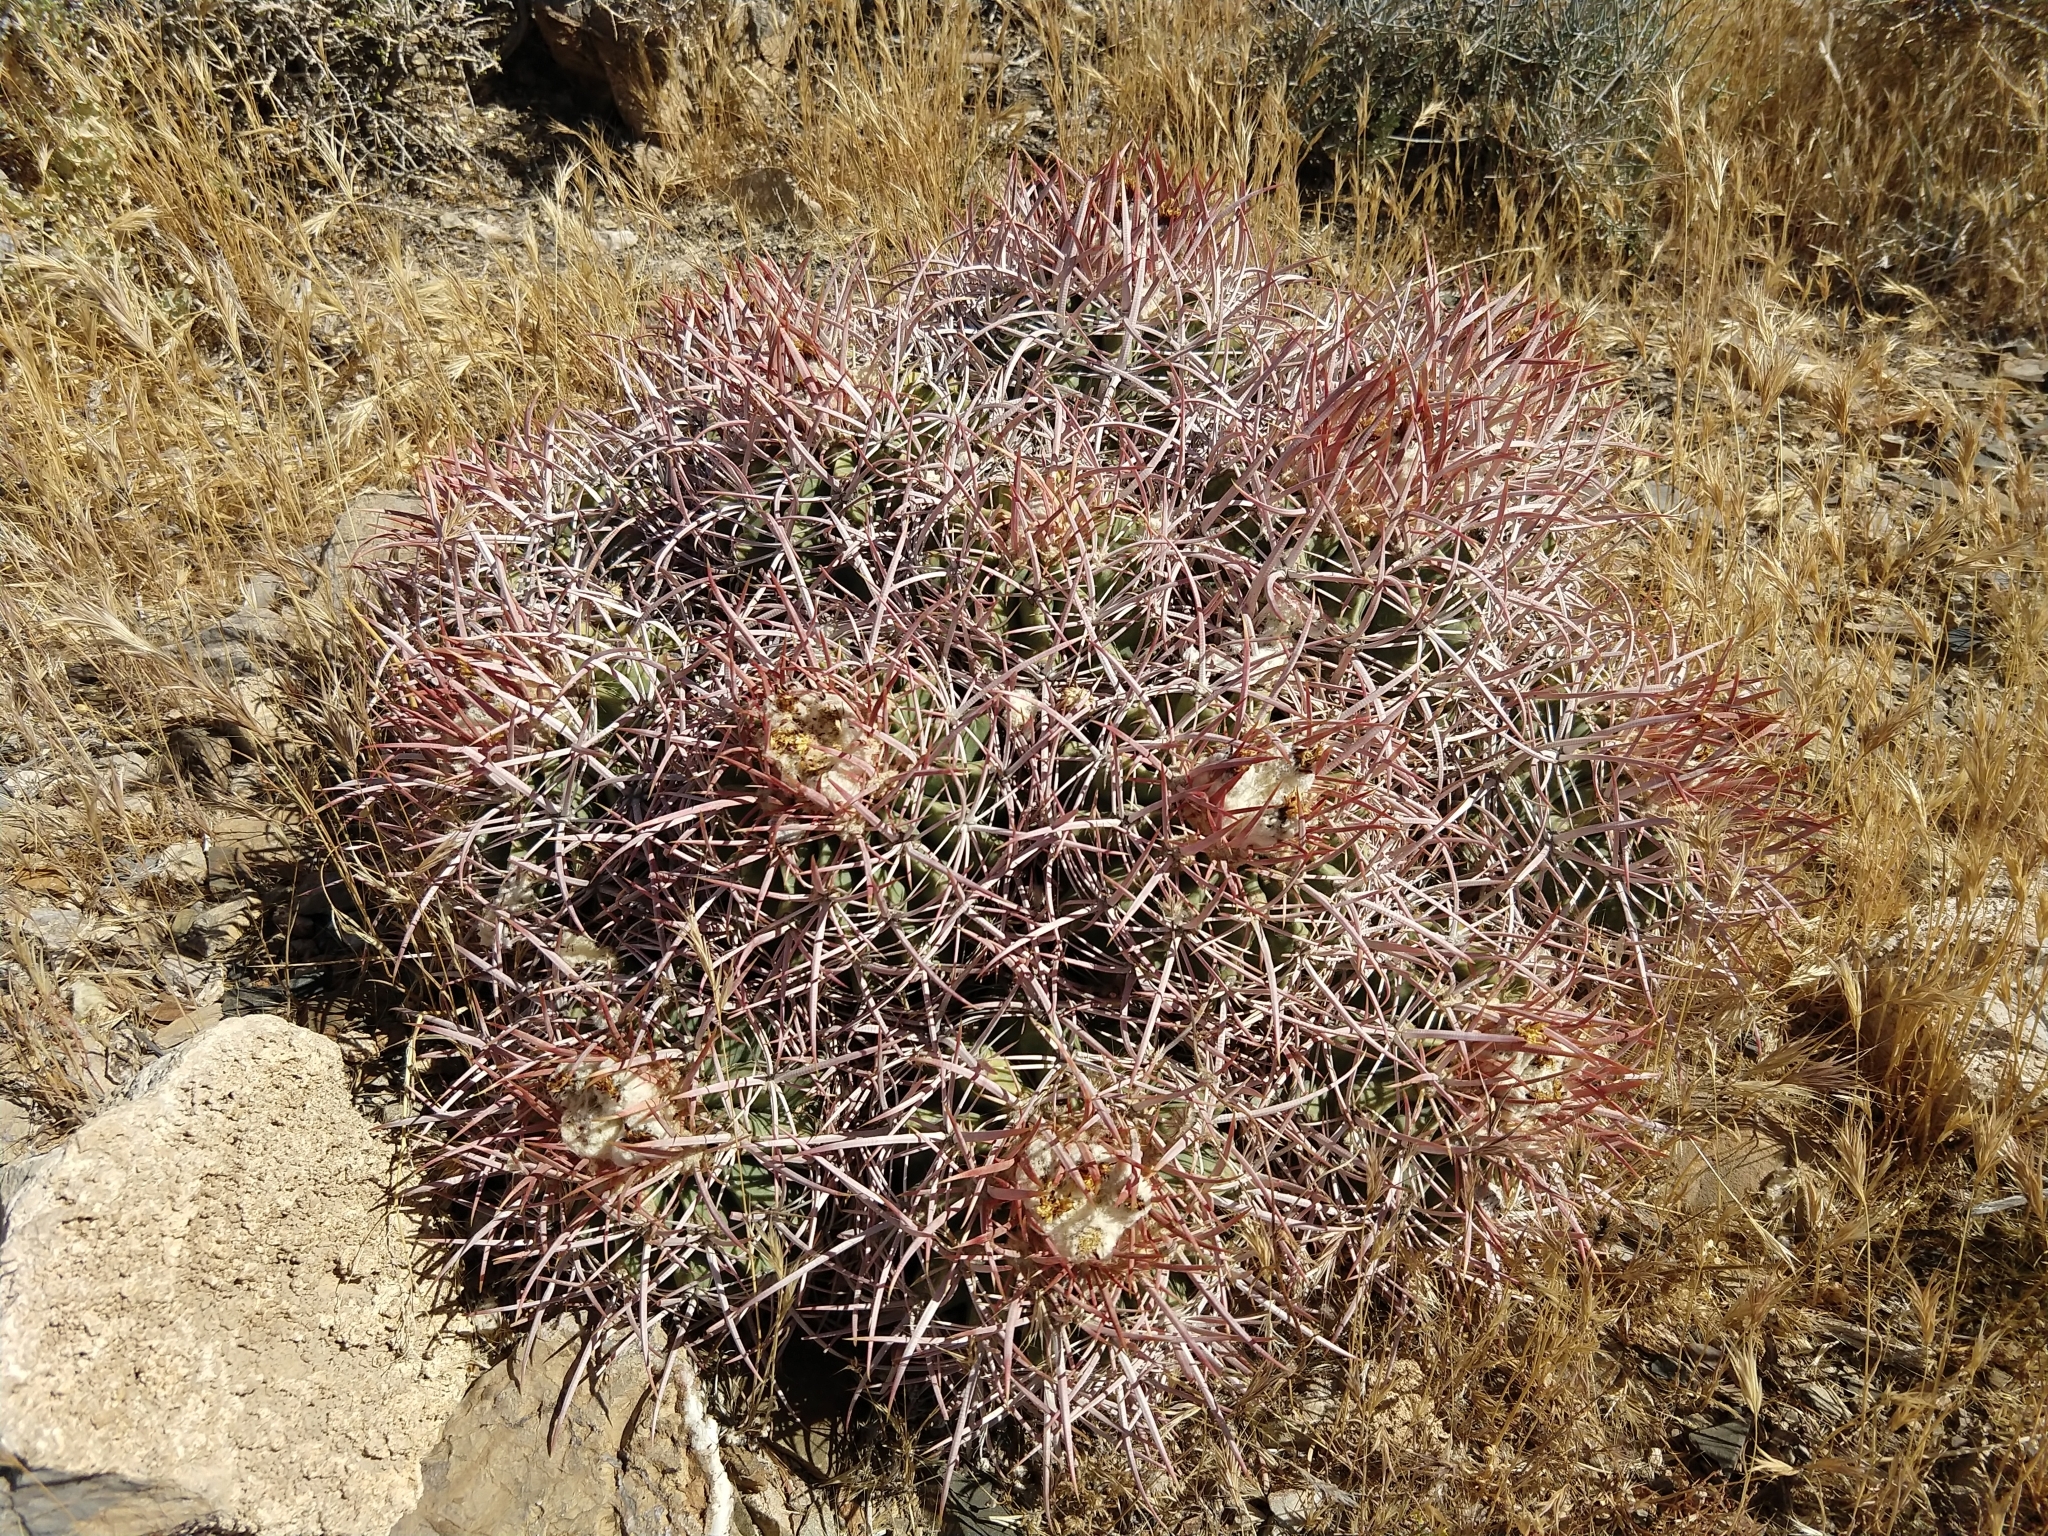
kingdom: Plantae
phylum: Tracheophyta
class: Magnoliopsida
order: Caryophyllales
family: Cactaceae
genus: Echinocactus
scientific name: Echinocactus polycephalus
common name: Cottontop cactus
